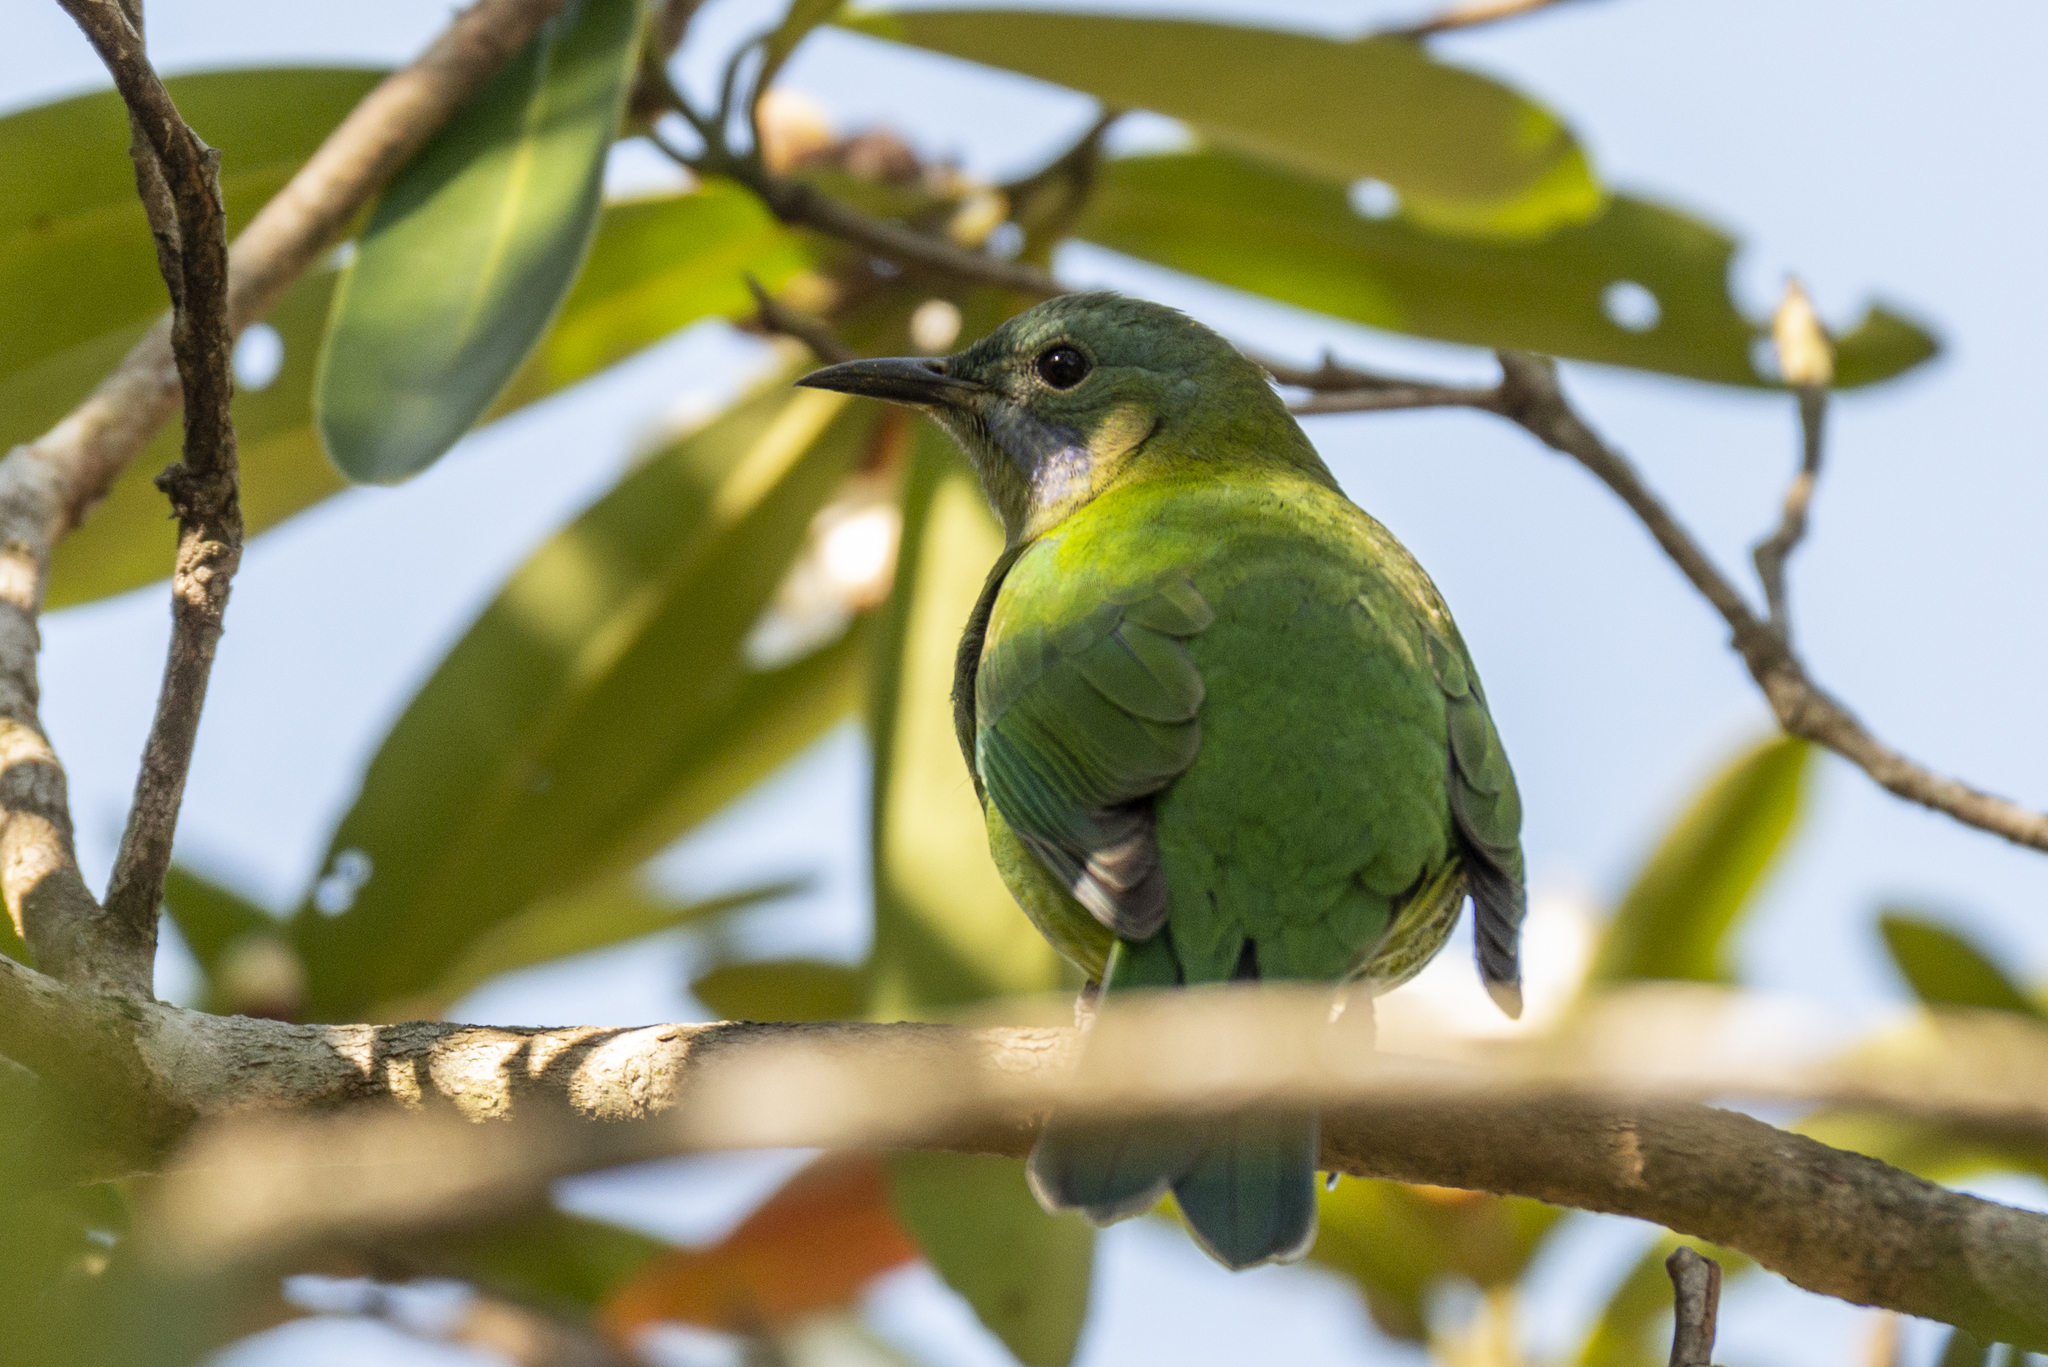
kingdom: Animalia
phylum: Chordata
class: Aves
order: Passeriformes
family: Chloropseidae
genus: Chloropsis
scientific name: Chloropsis hardwickii
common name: Orange-bellied leafbird
